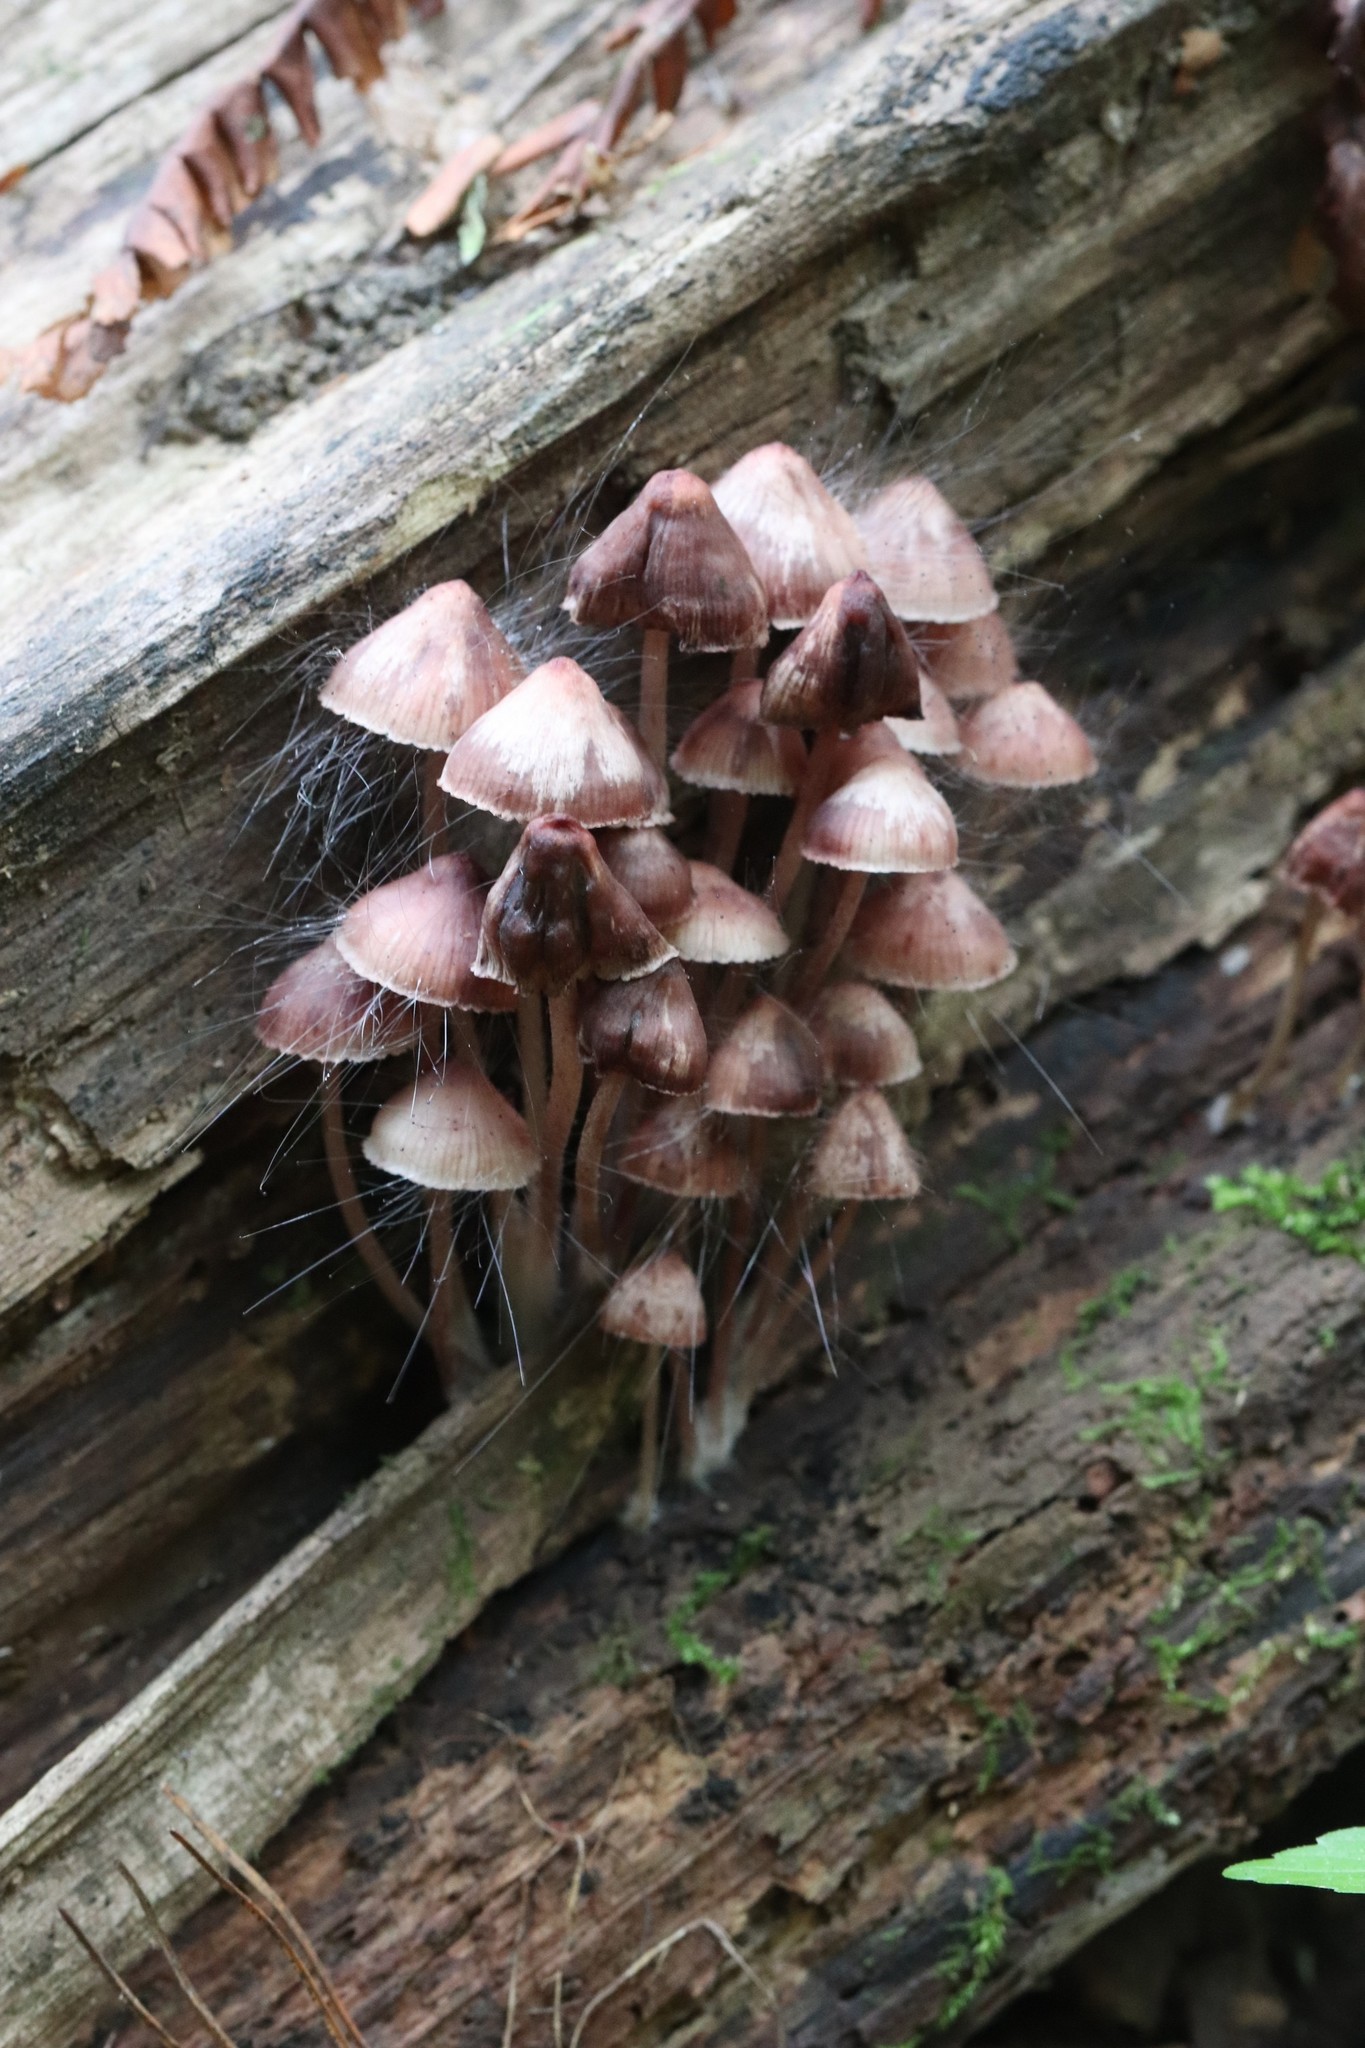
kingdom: Fungi
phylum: Basidiomycota
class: Agaricomycetes
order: Agaricales
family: Mycenaceae
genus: Mycena
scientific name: Mycena haematopus
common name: Burgundydrop bonnet
